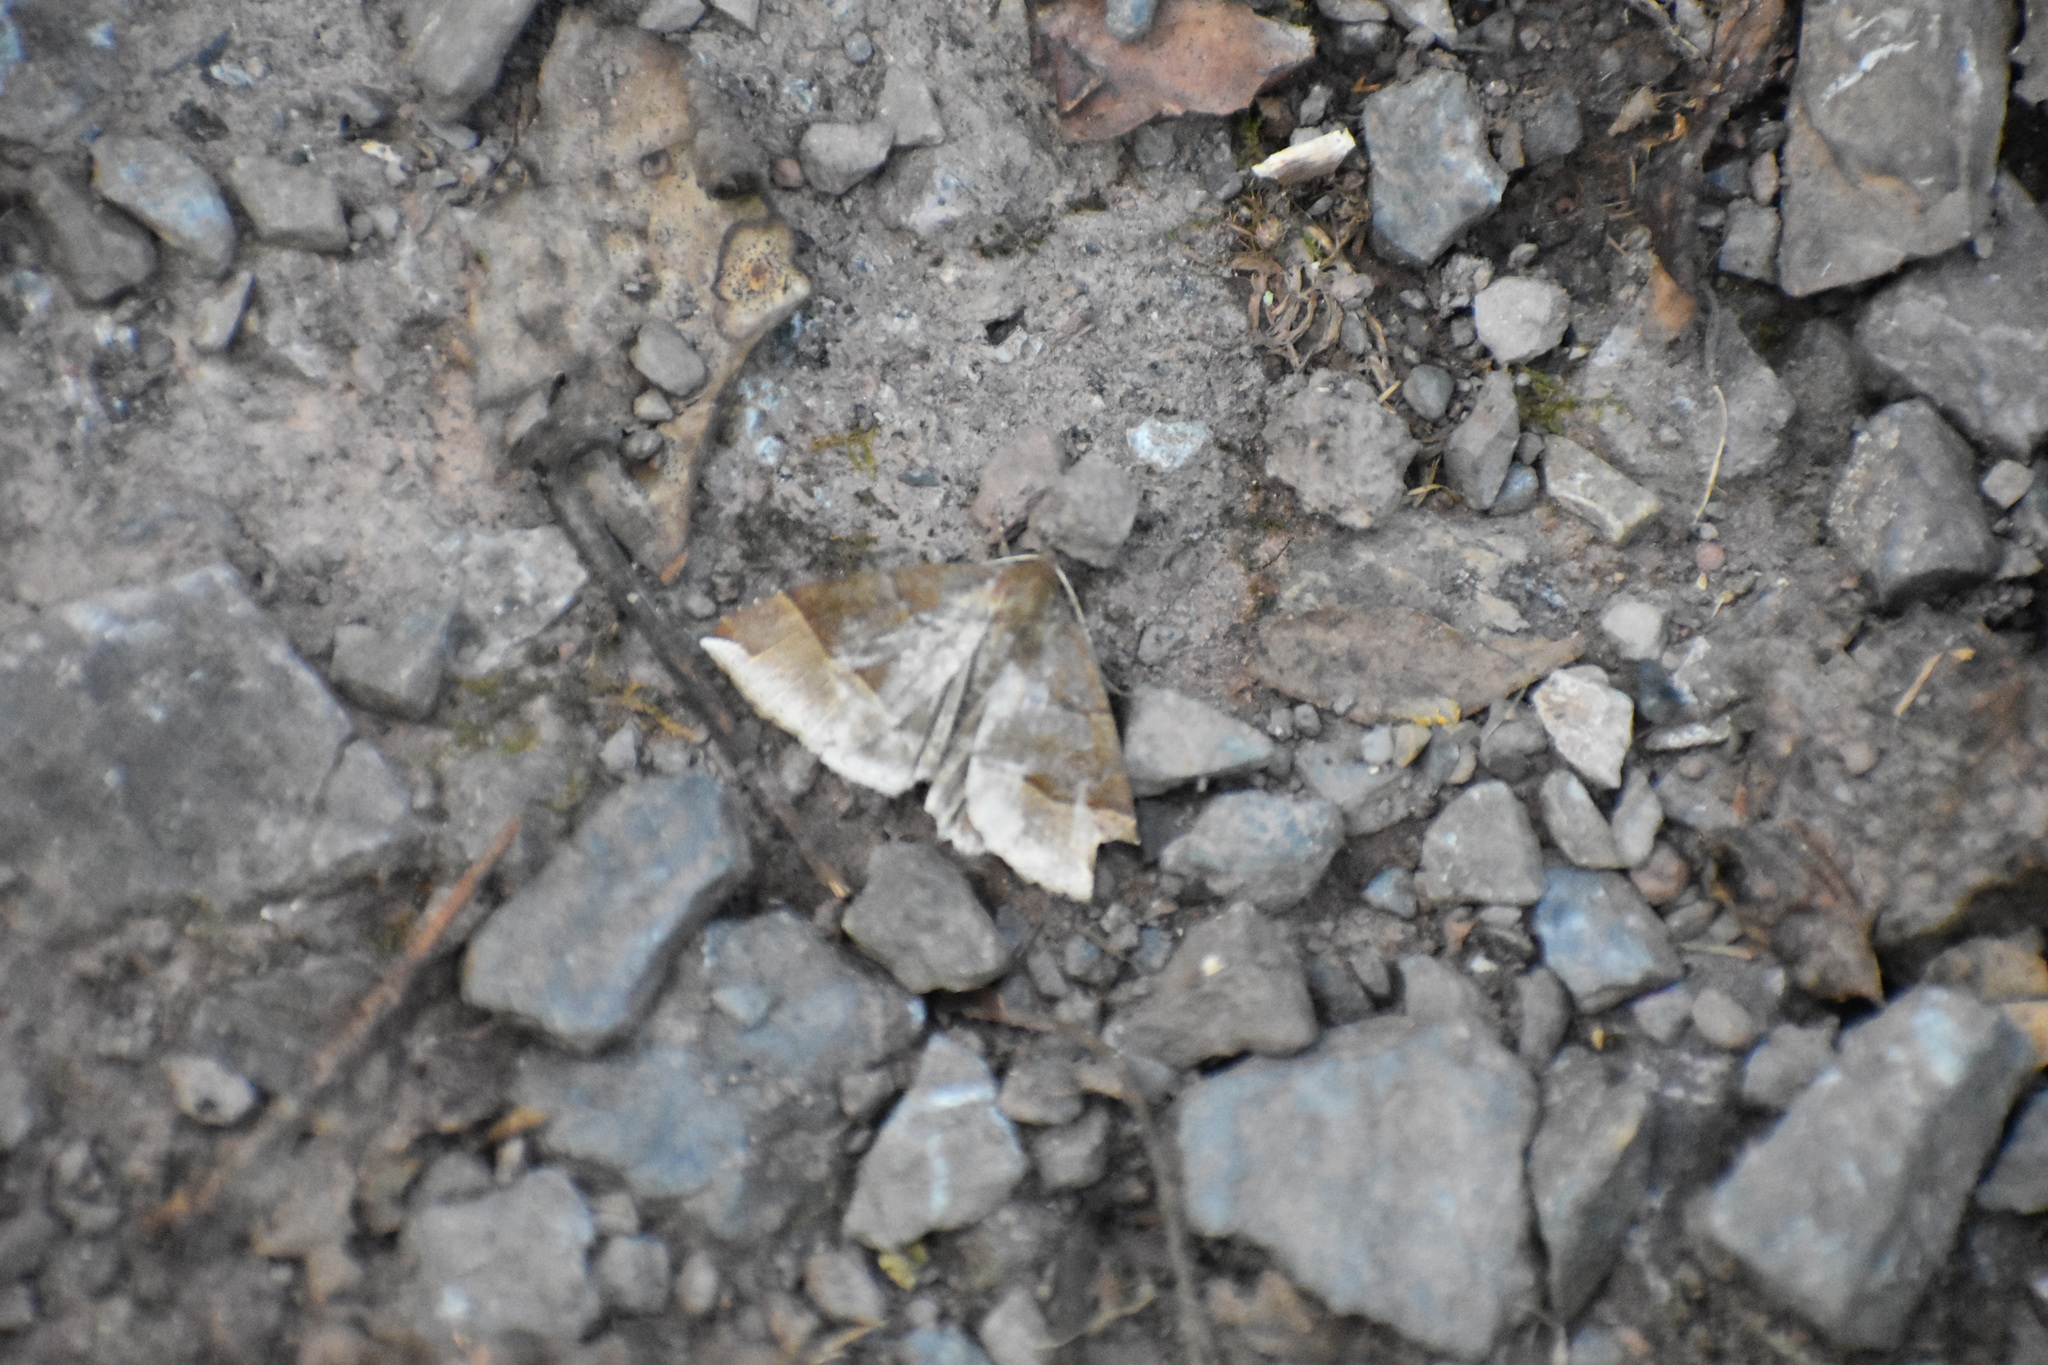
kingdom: Animalia
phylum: Arthropoda
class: Insecta
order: Lepidoptera
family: Erebidae
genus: Parallelia
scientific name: Parallelia bistriaris
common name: Maple looper moth
